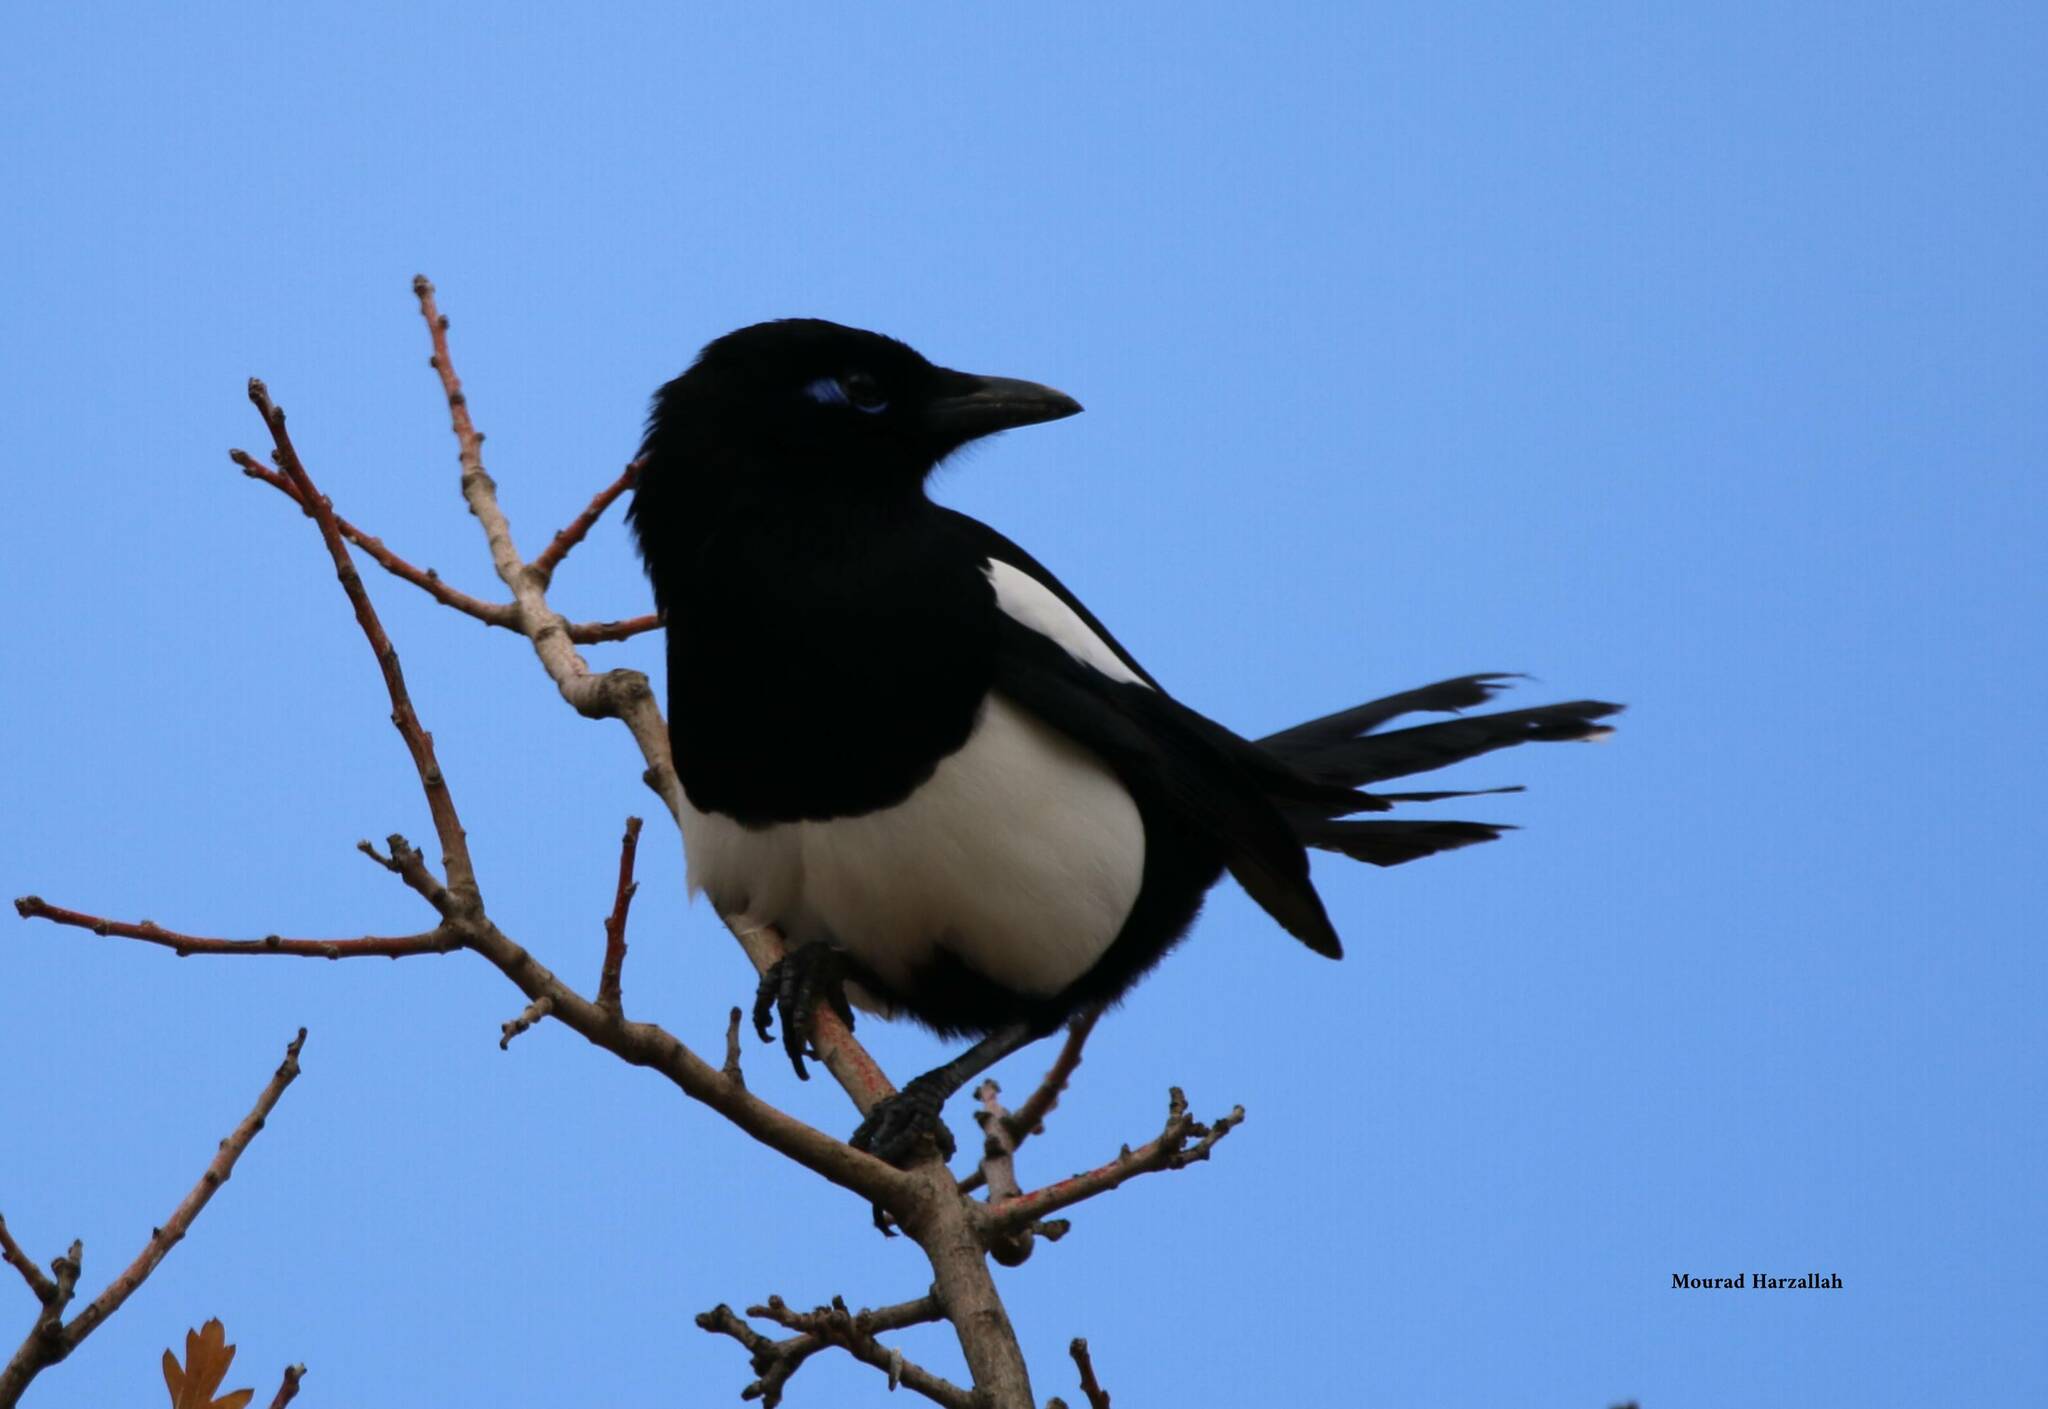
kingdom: Animalia
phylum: Chordata
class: Aves
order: Passeriformes
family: Corvidae
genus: Pica
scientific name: Pica mauritanica
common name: Maghreb magpie
